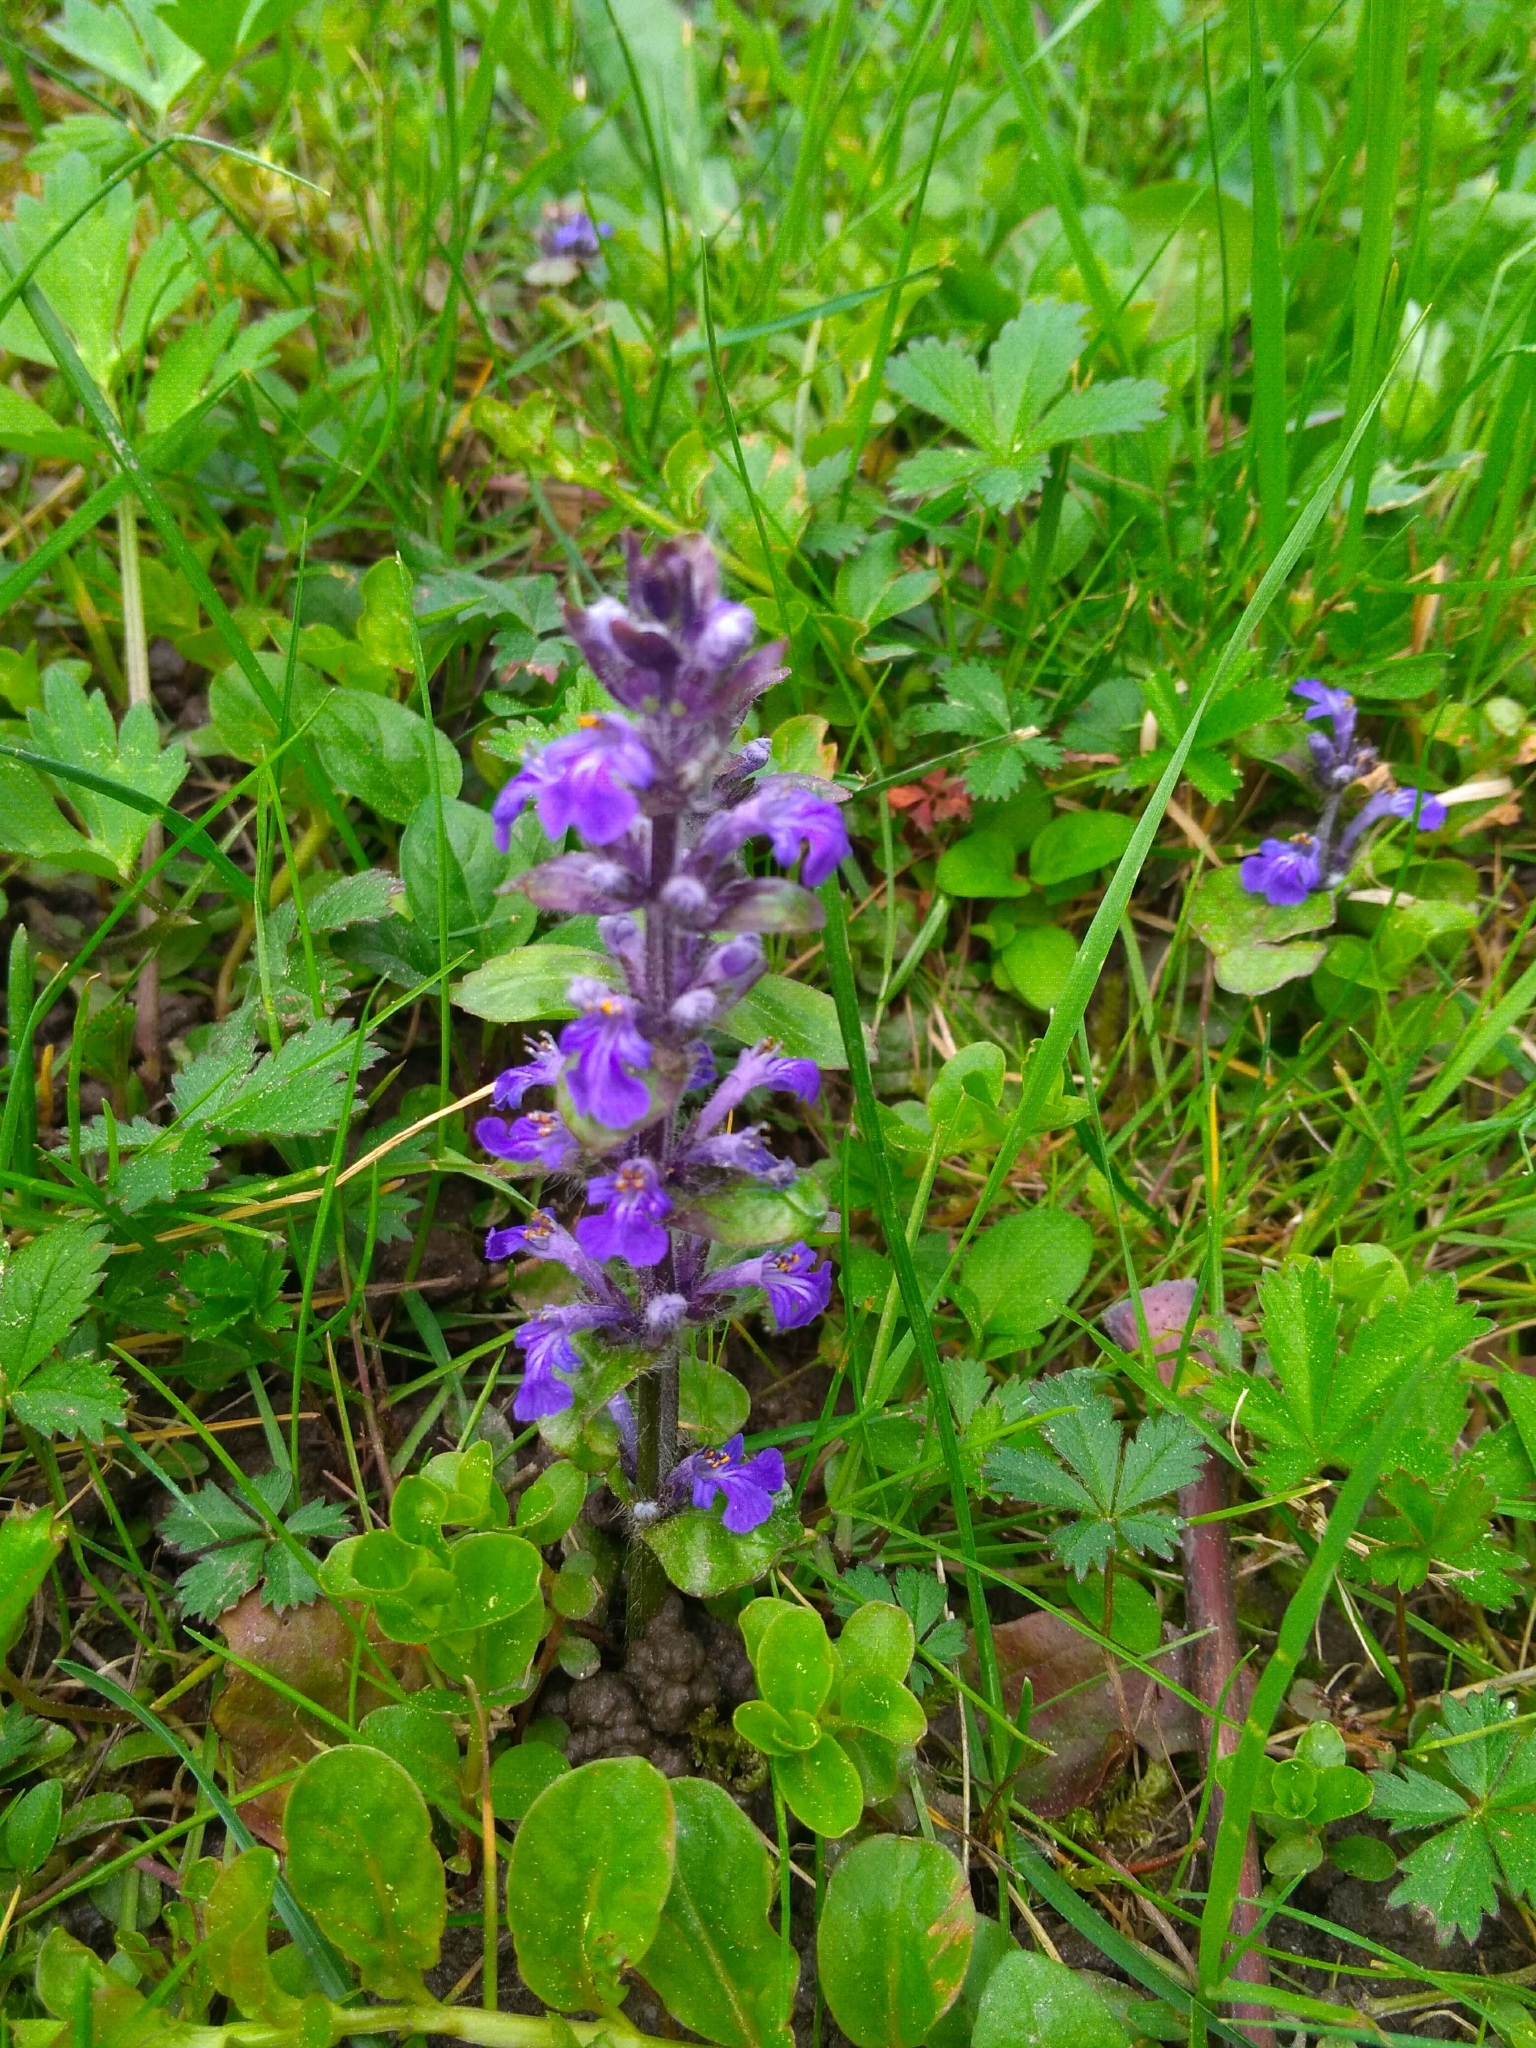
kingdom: Plantae
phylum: Tracheophyta
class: Magnoliopsida
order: Lamiales
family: Lamiaceae
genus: Ajuga
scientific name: Ajuga reptans
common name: Bugle
